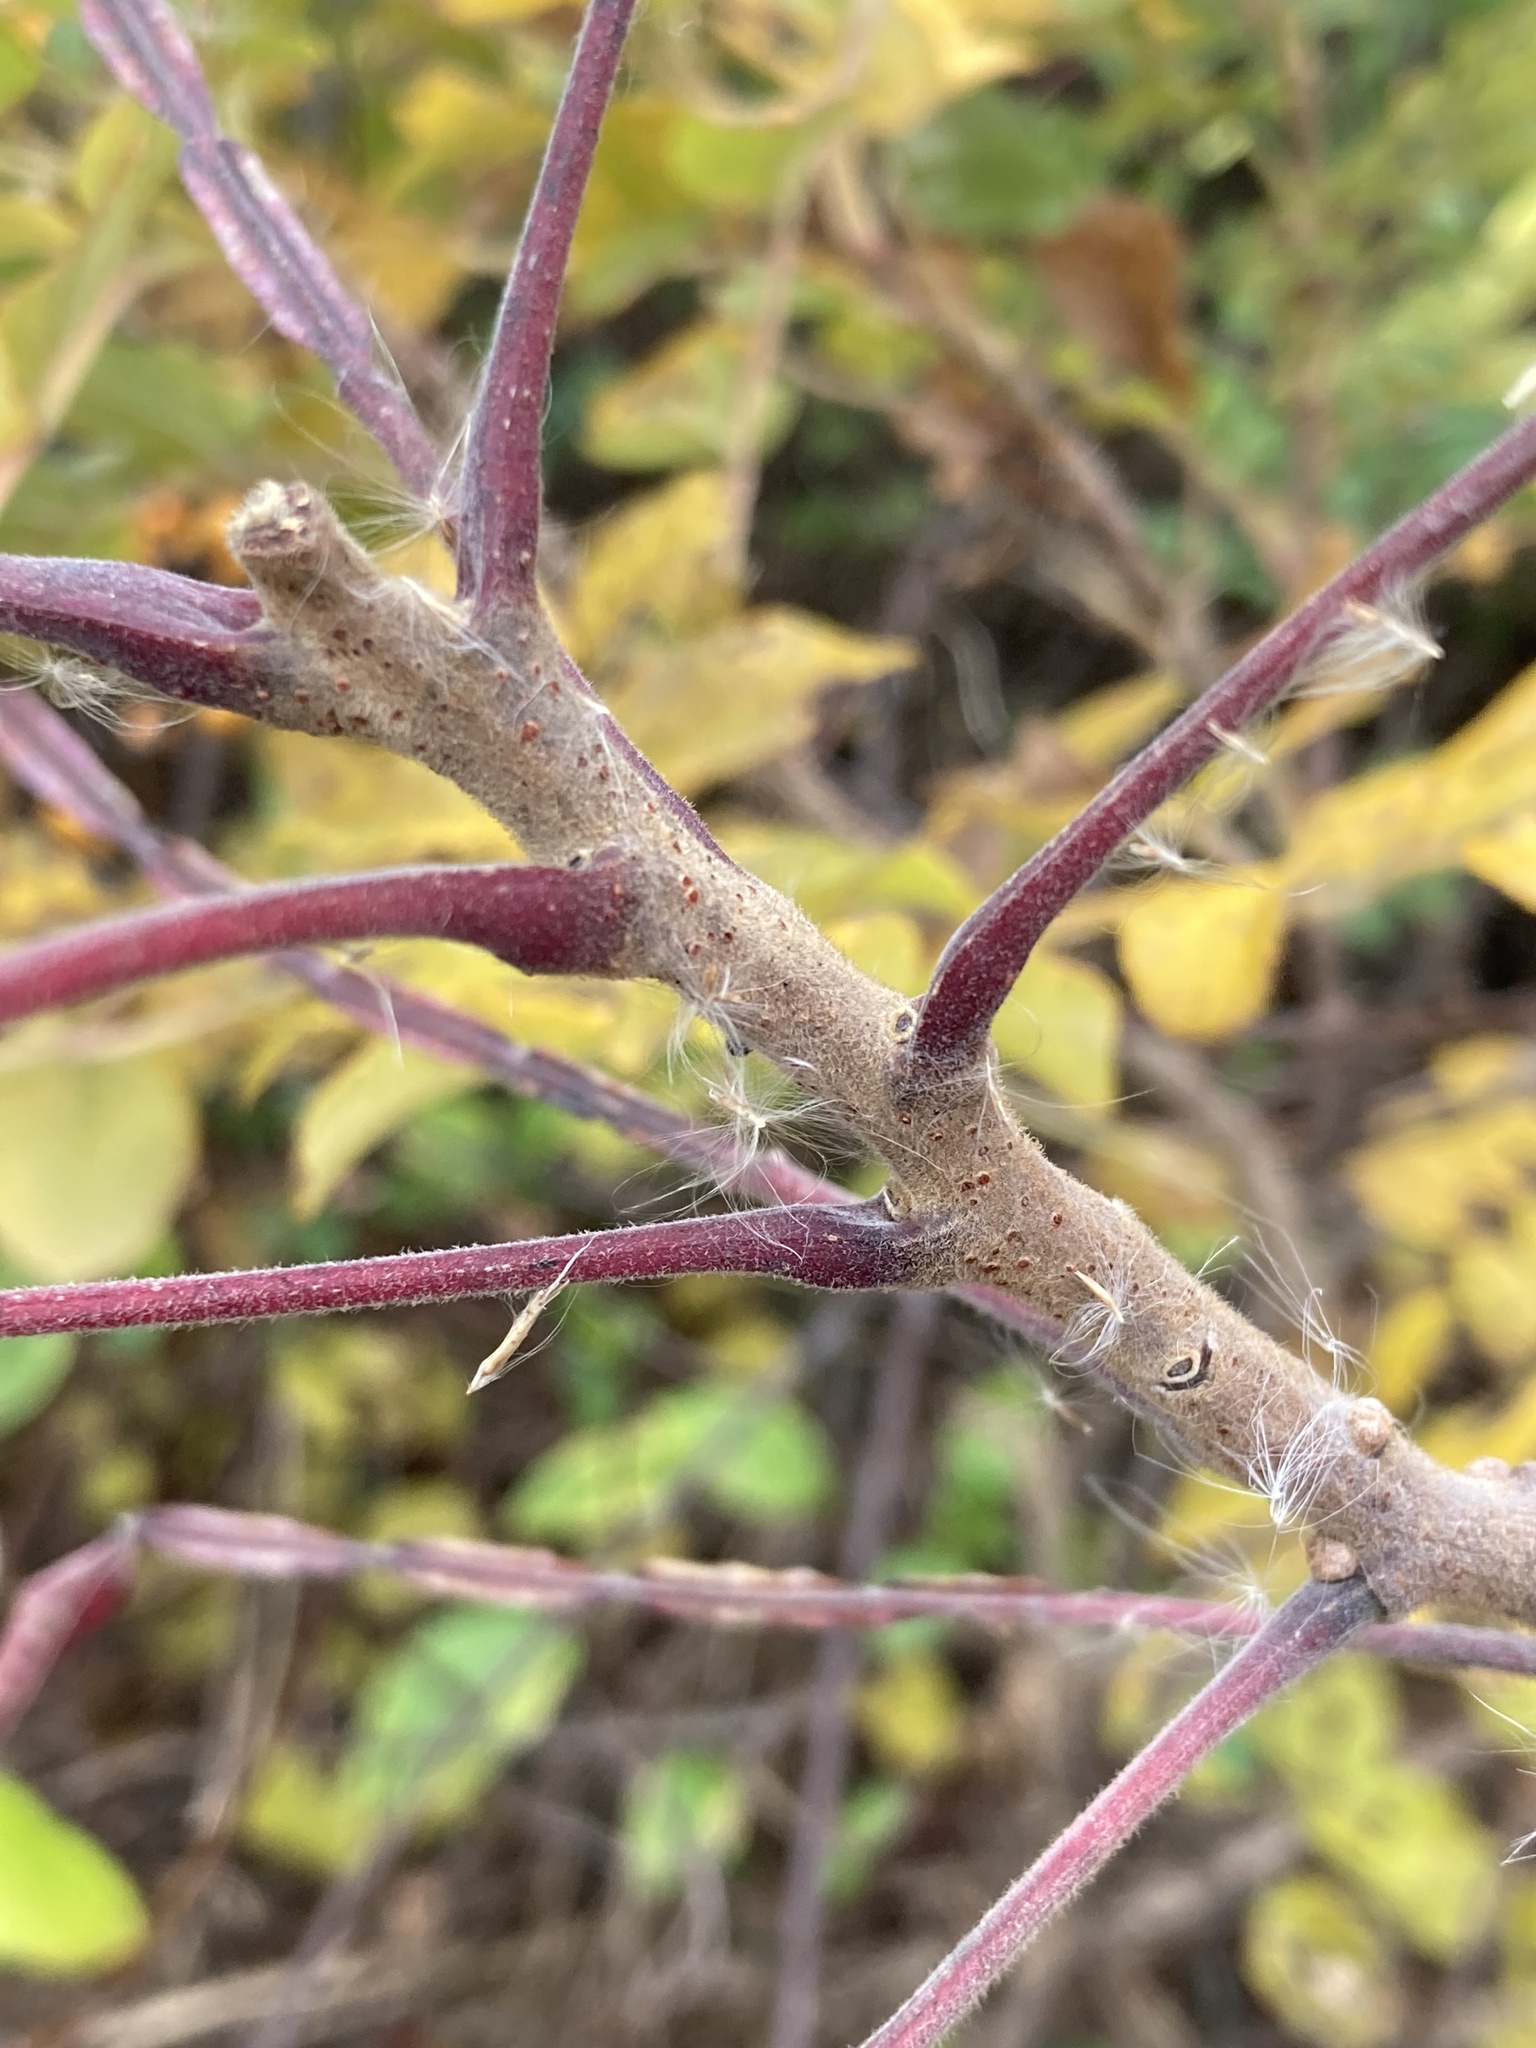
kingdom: Plantae
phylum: Tracheophyta
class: Magnoliopsida
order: Sapindales
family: Anacardiaceae
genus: Rhus
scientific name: Rhus copallina
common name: Shining sumac
